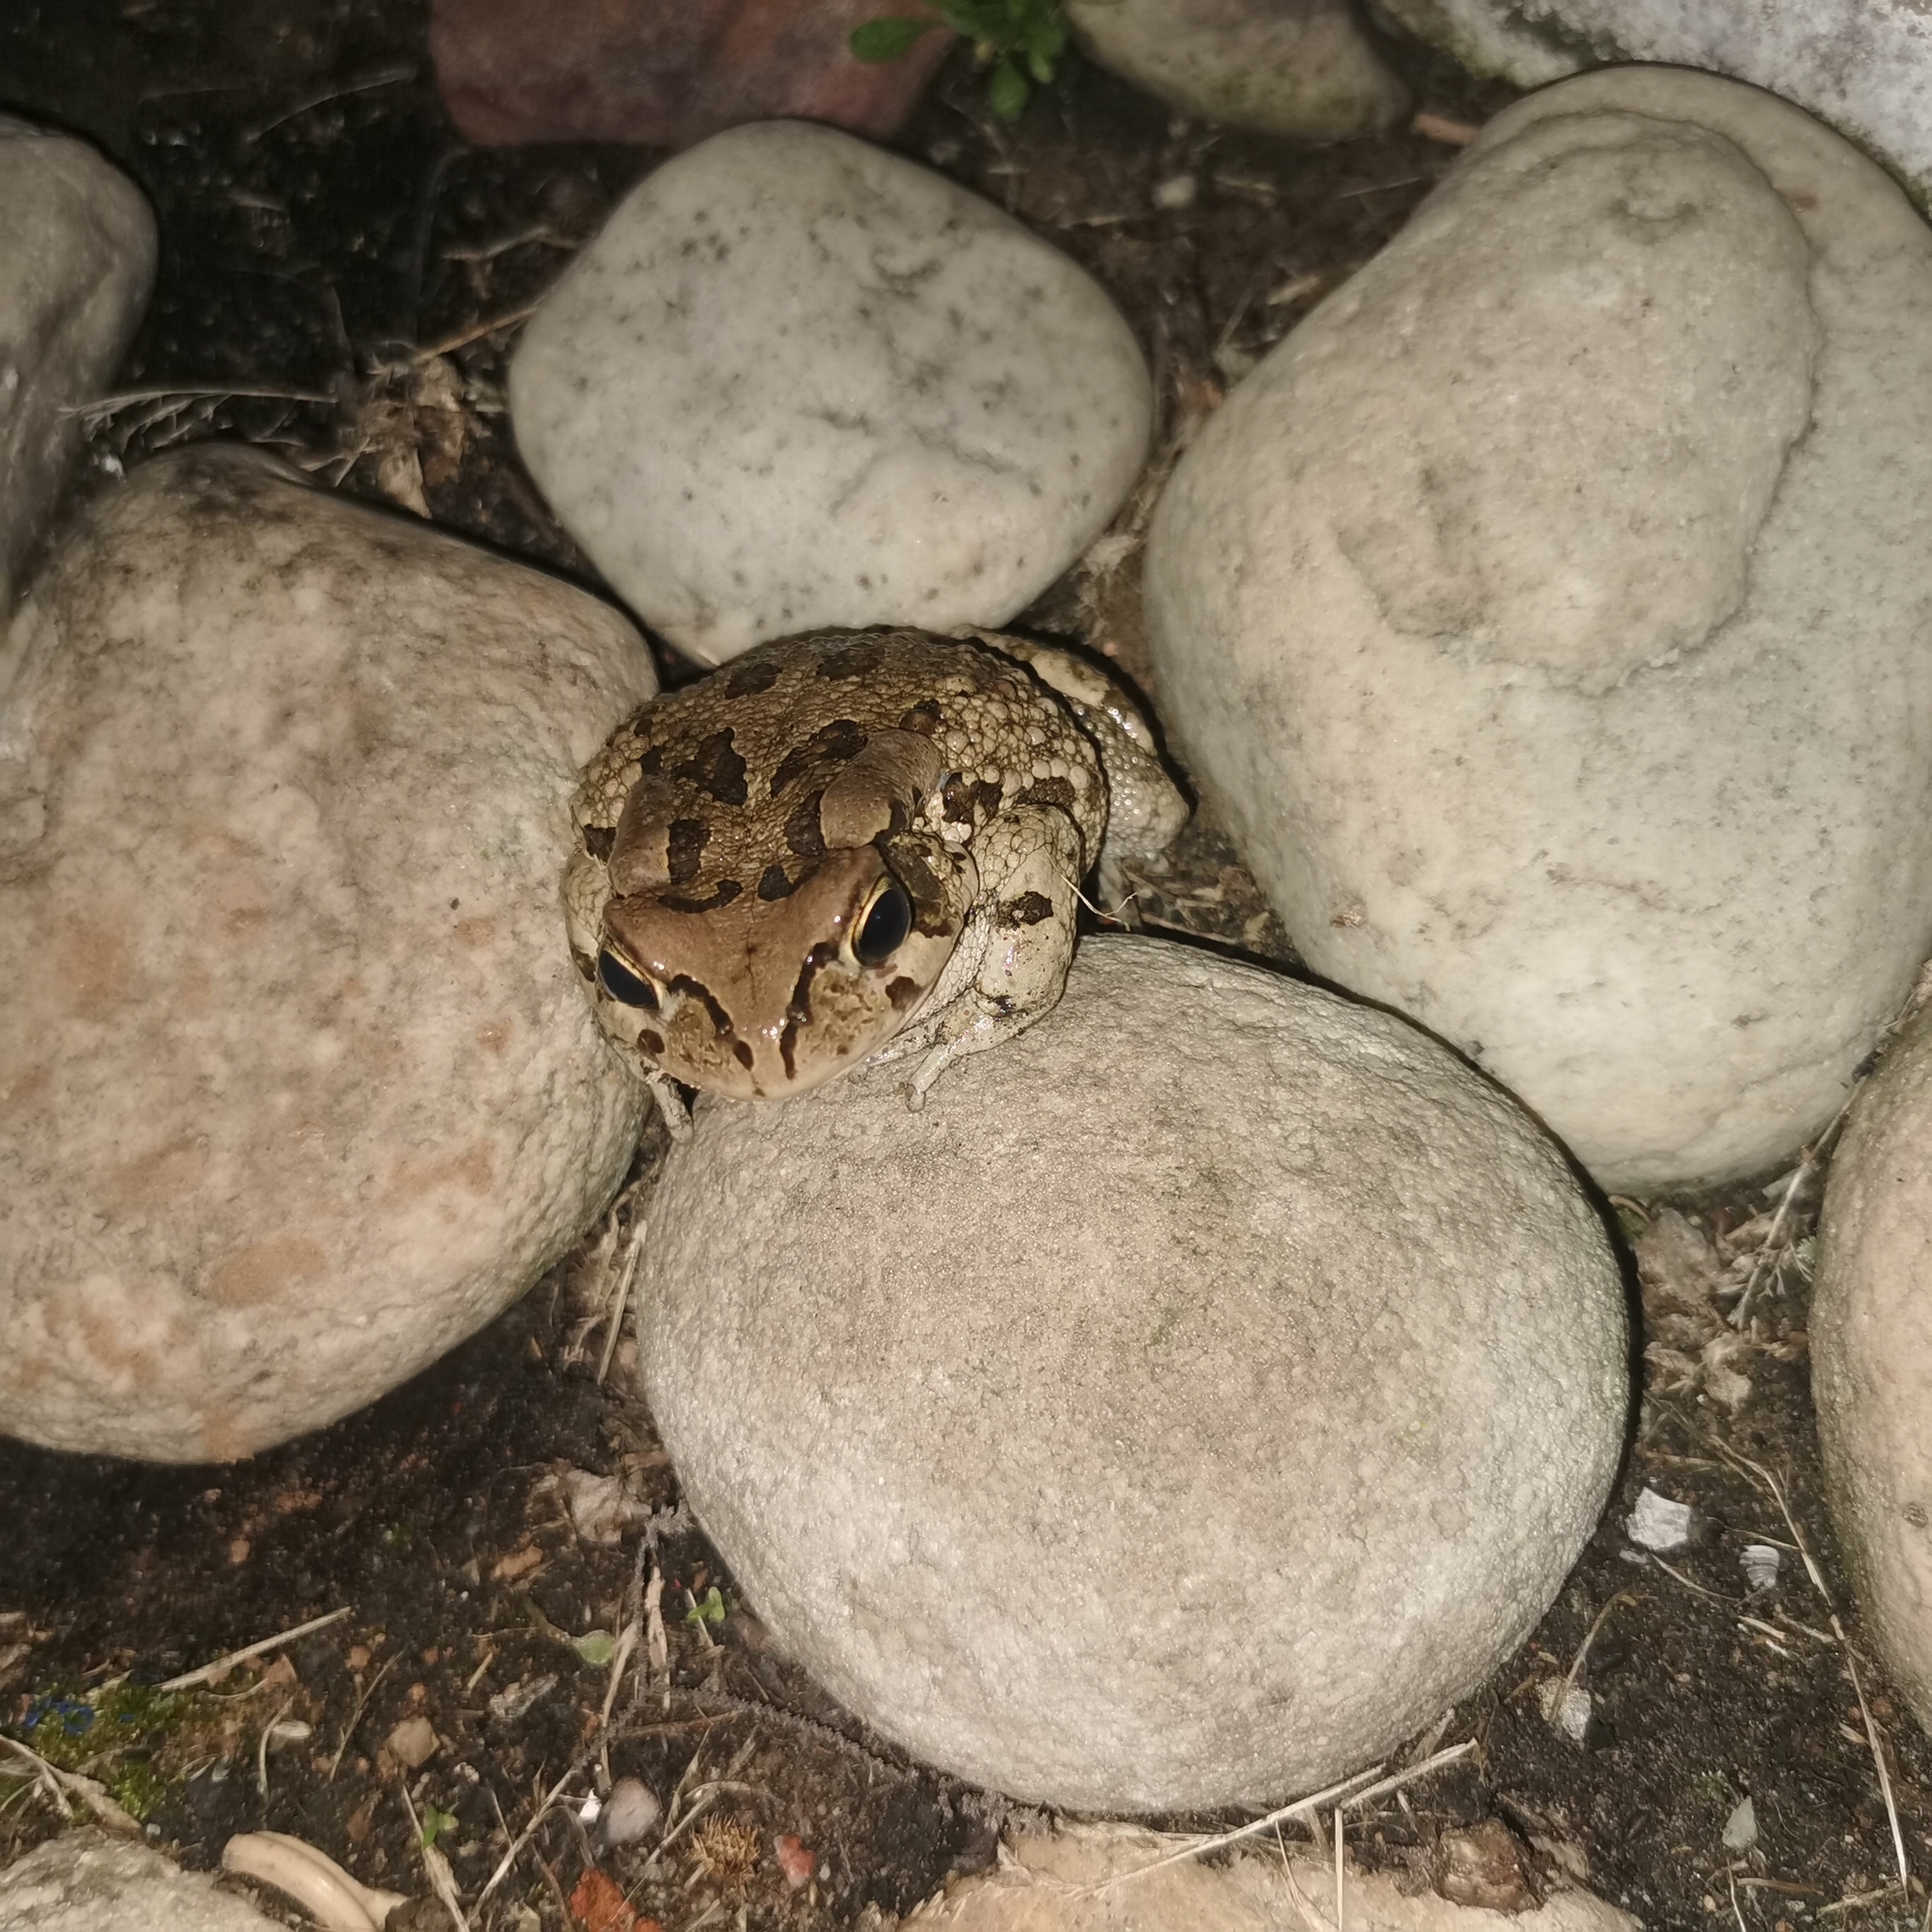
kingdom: Animalia
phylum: Chordata
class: Amphibia
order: Anura
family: Bufonidae
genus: Sclerophrys
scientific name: Sclerophrys capensis
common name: Ranger’s toad
